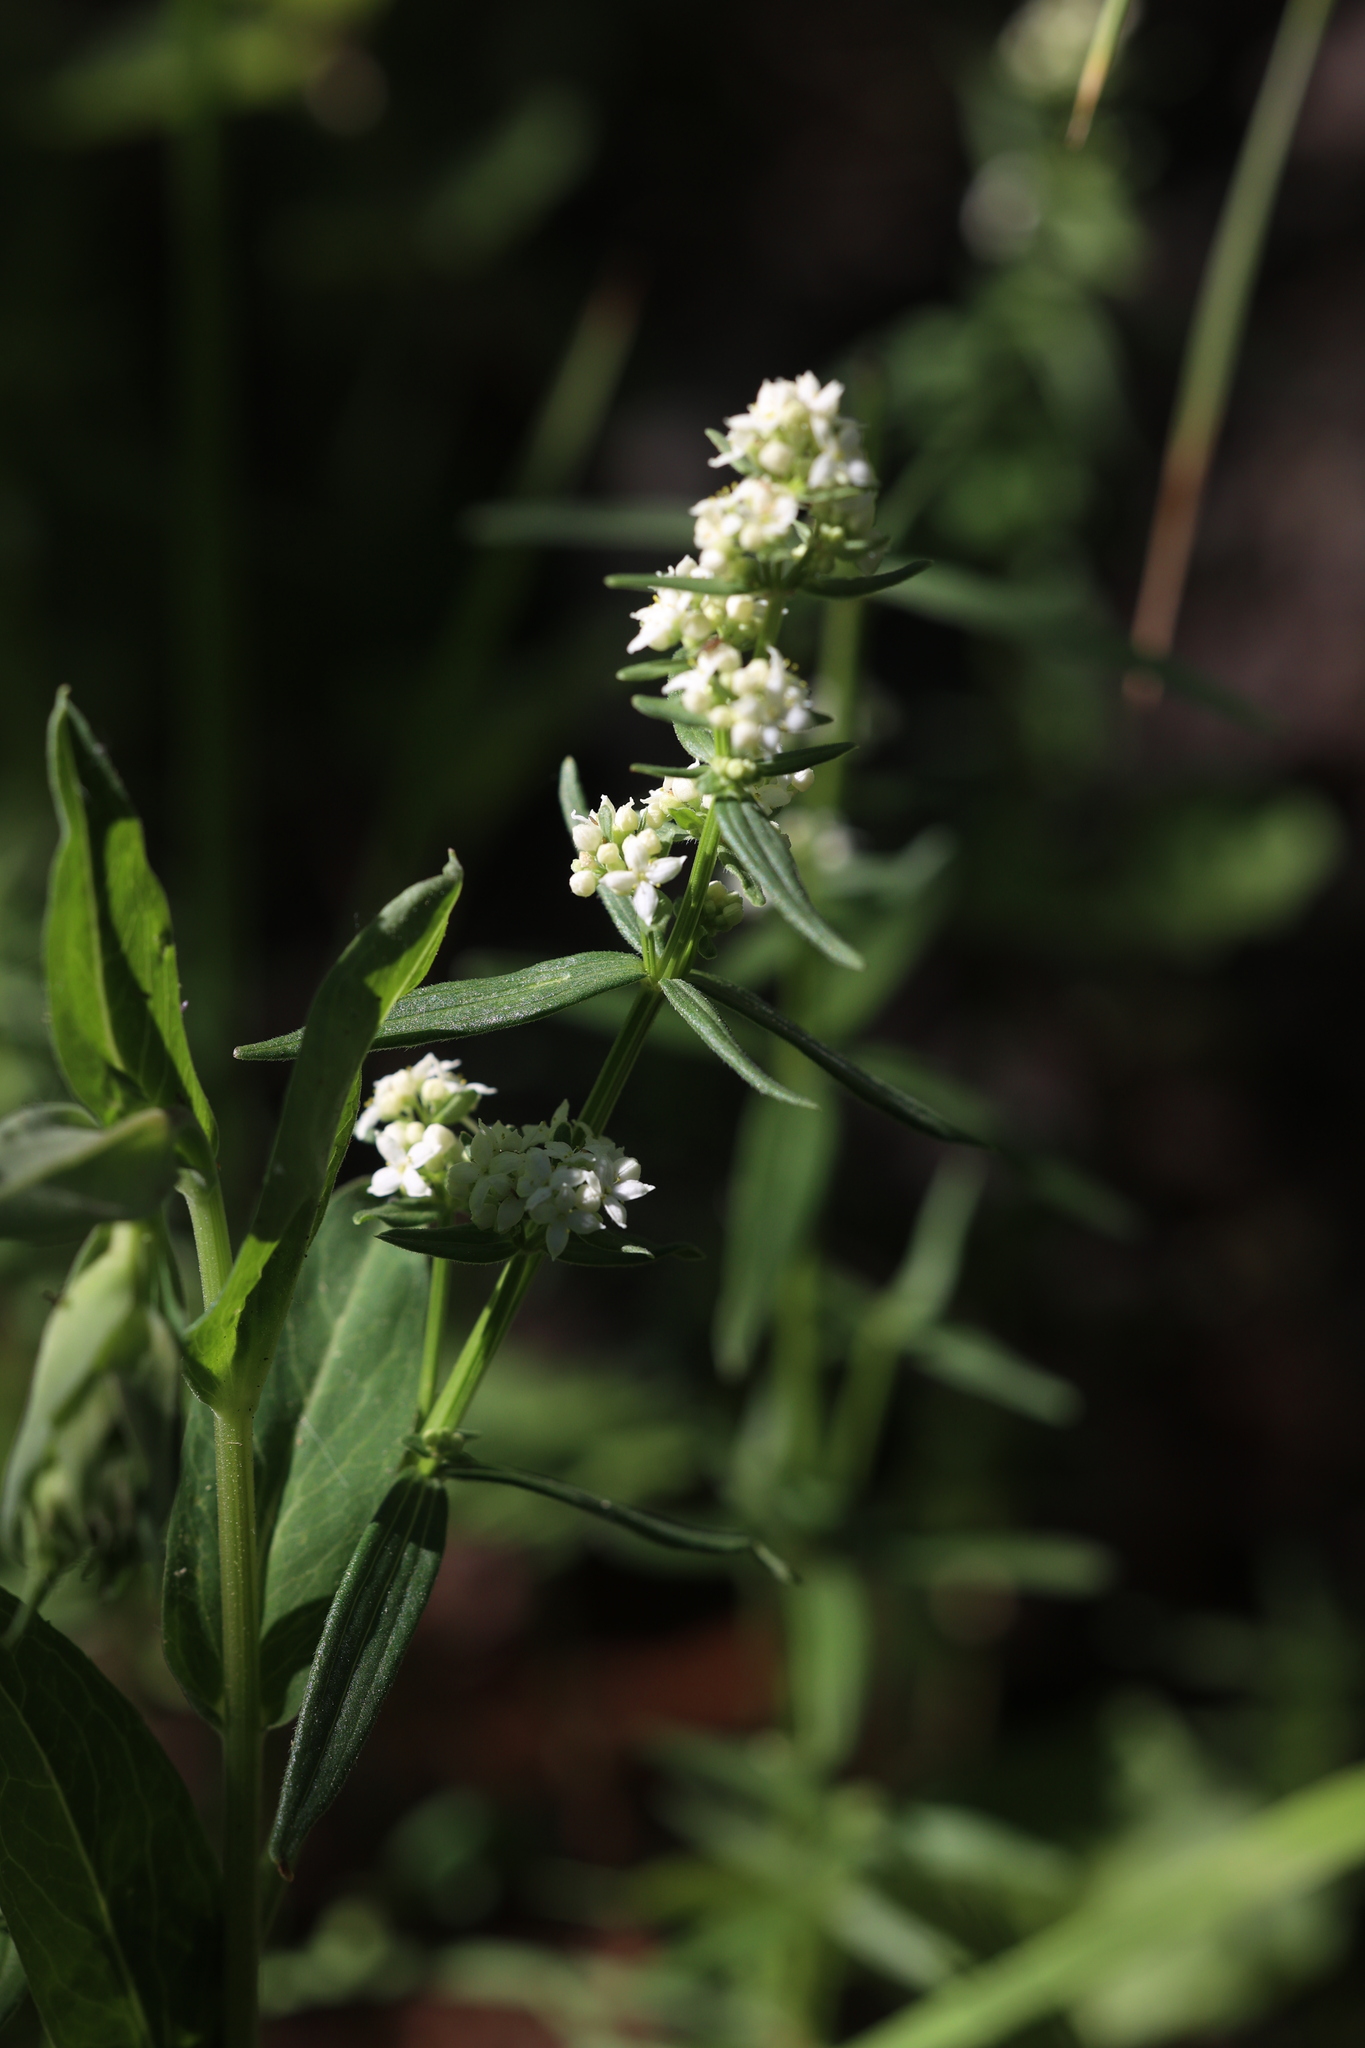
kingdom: Plantae
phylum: Tracheophyta
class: Magnoliopsida
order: Gentianales
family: Rubiaceae
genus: Galium
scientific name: Galium boreale
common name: Northern bedstraw
